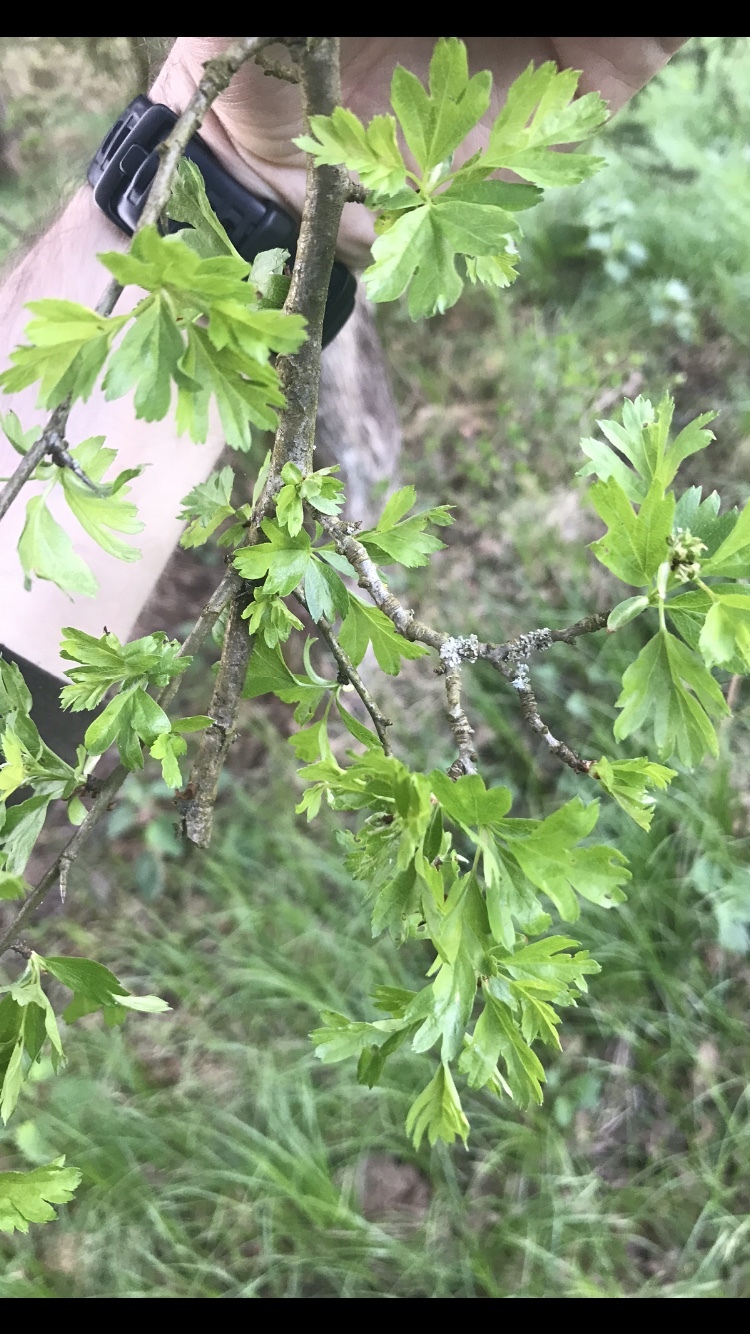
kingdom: Plantae
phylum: Tracheophyta
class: Magnoliopsida
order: Rosales
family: Rosaceae
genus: Crataegus
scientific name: Crataegus monogyna
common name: Hawthorn
